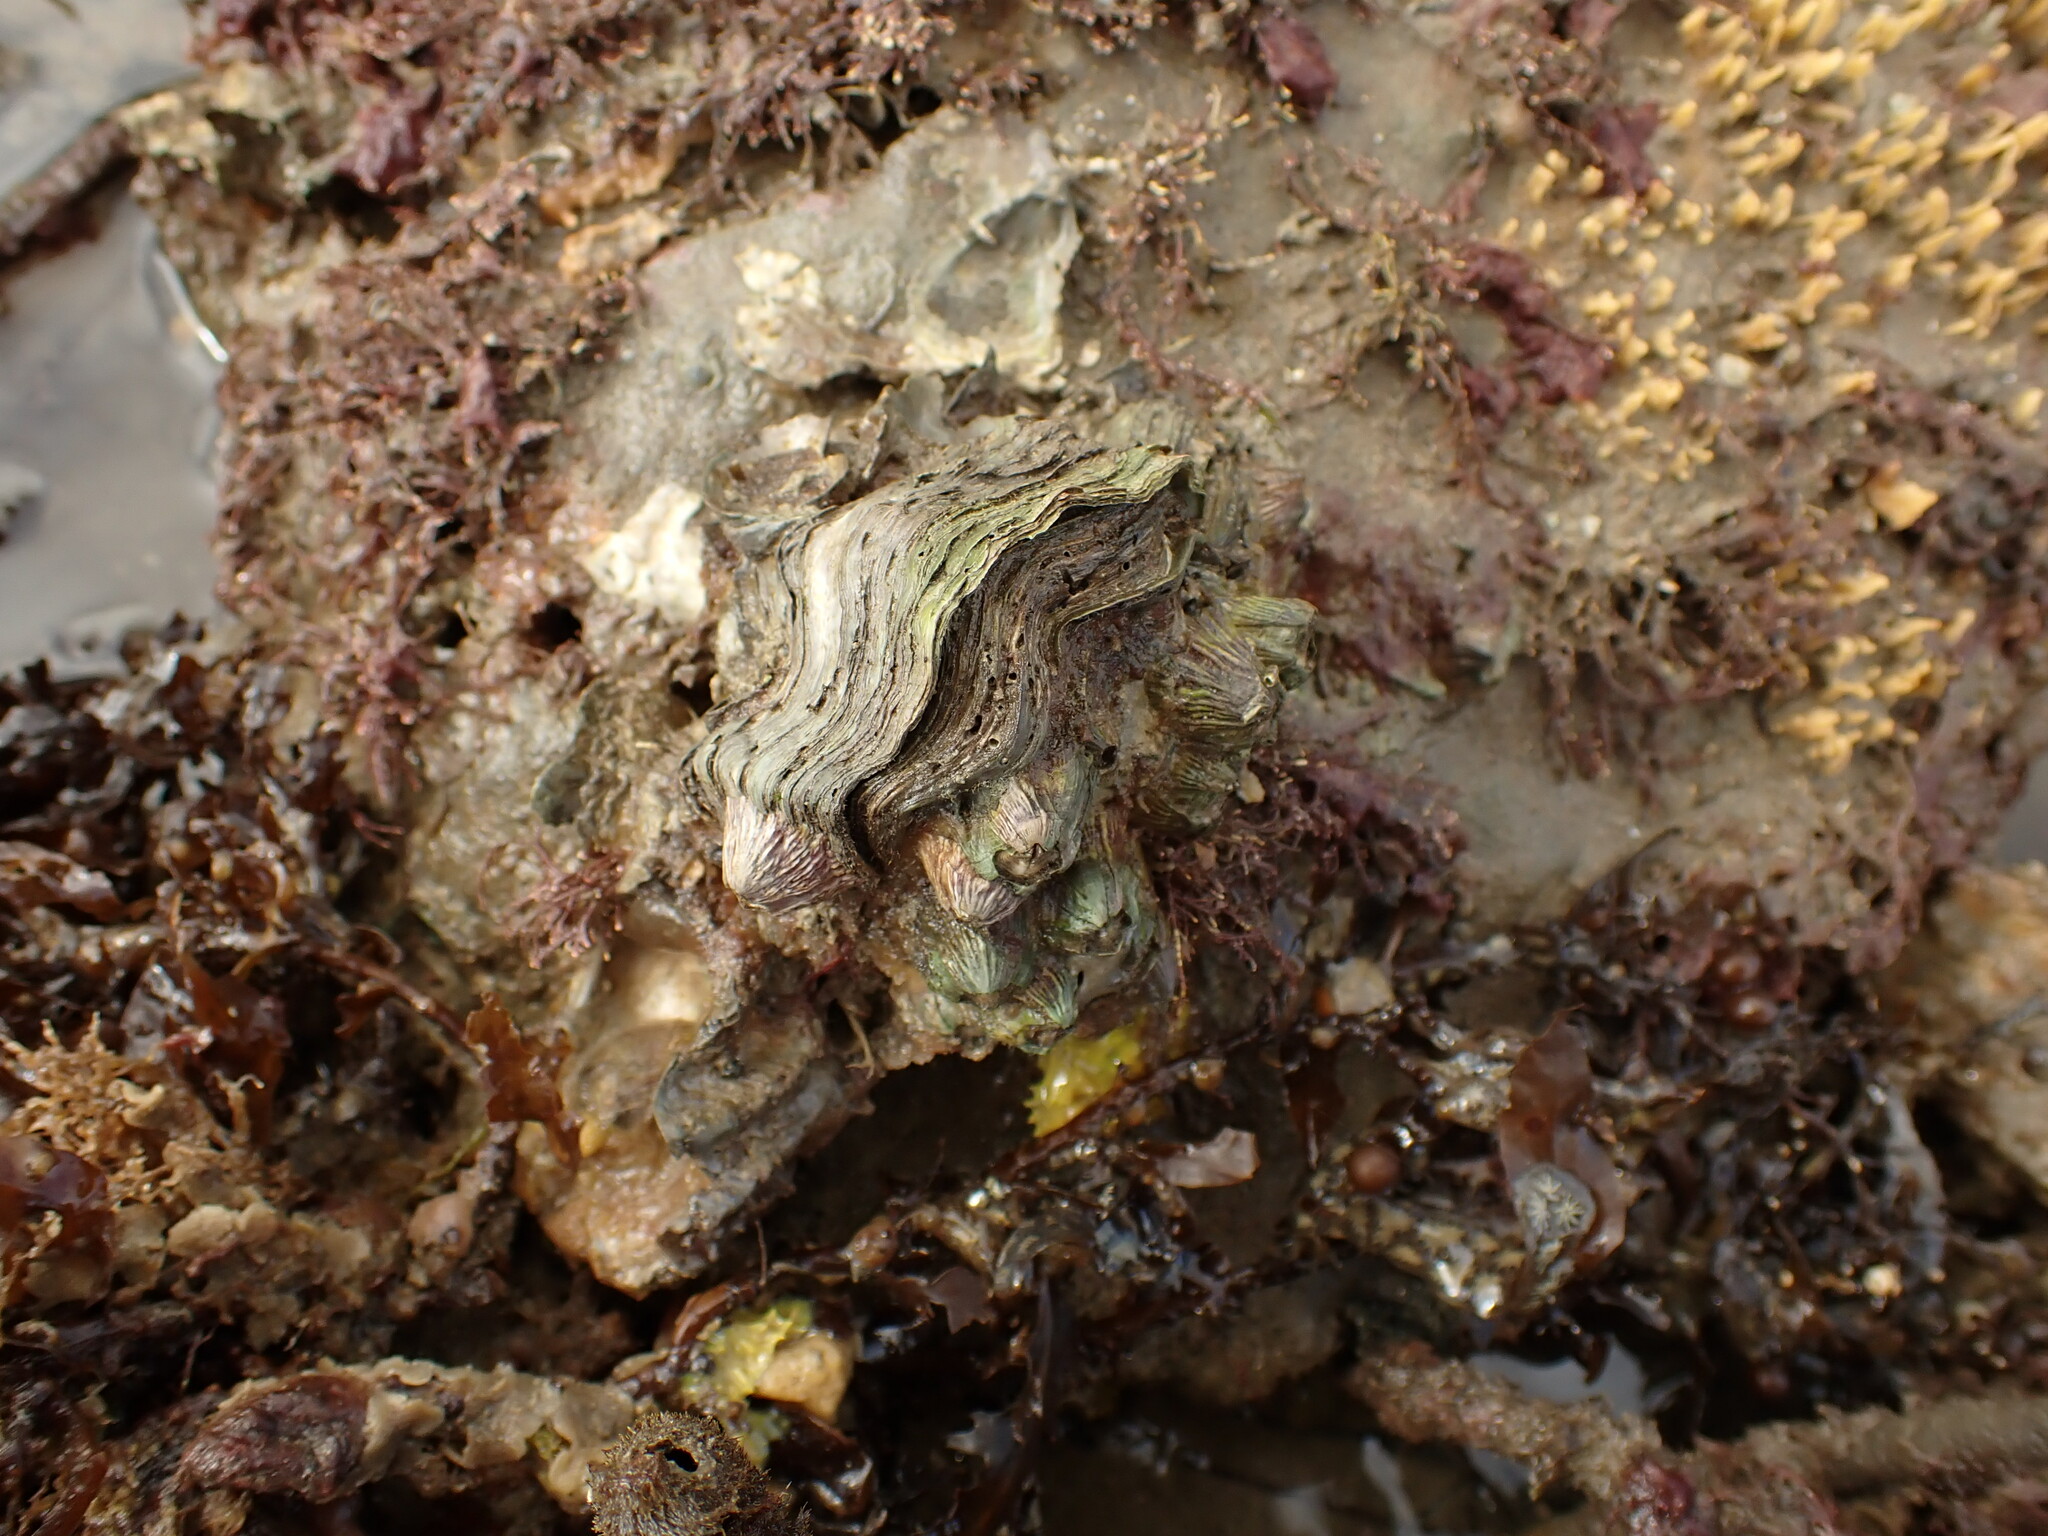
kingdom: Animalia
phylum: Mollusca
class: Bivalvia
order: Ostreida
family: Ostreidae
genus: Magallana
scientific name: Magallana gigas
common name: Pacific oyster
